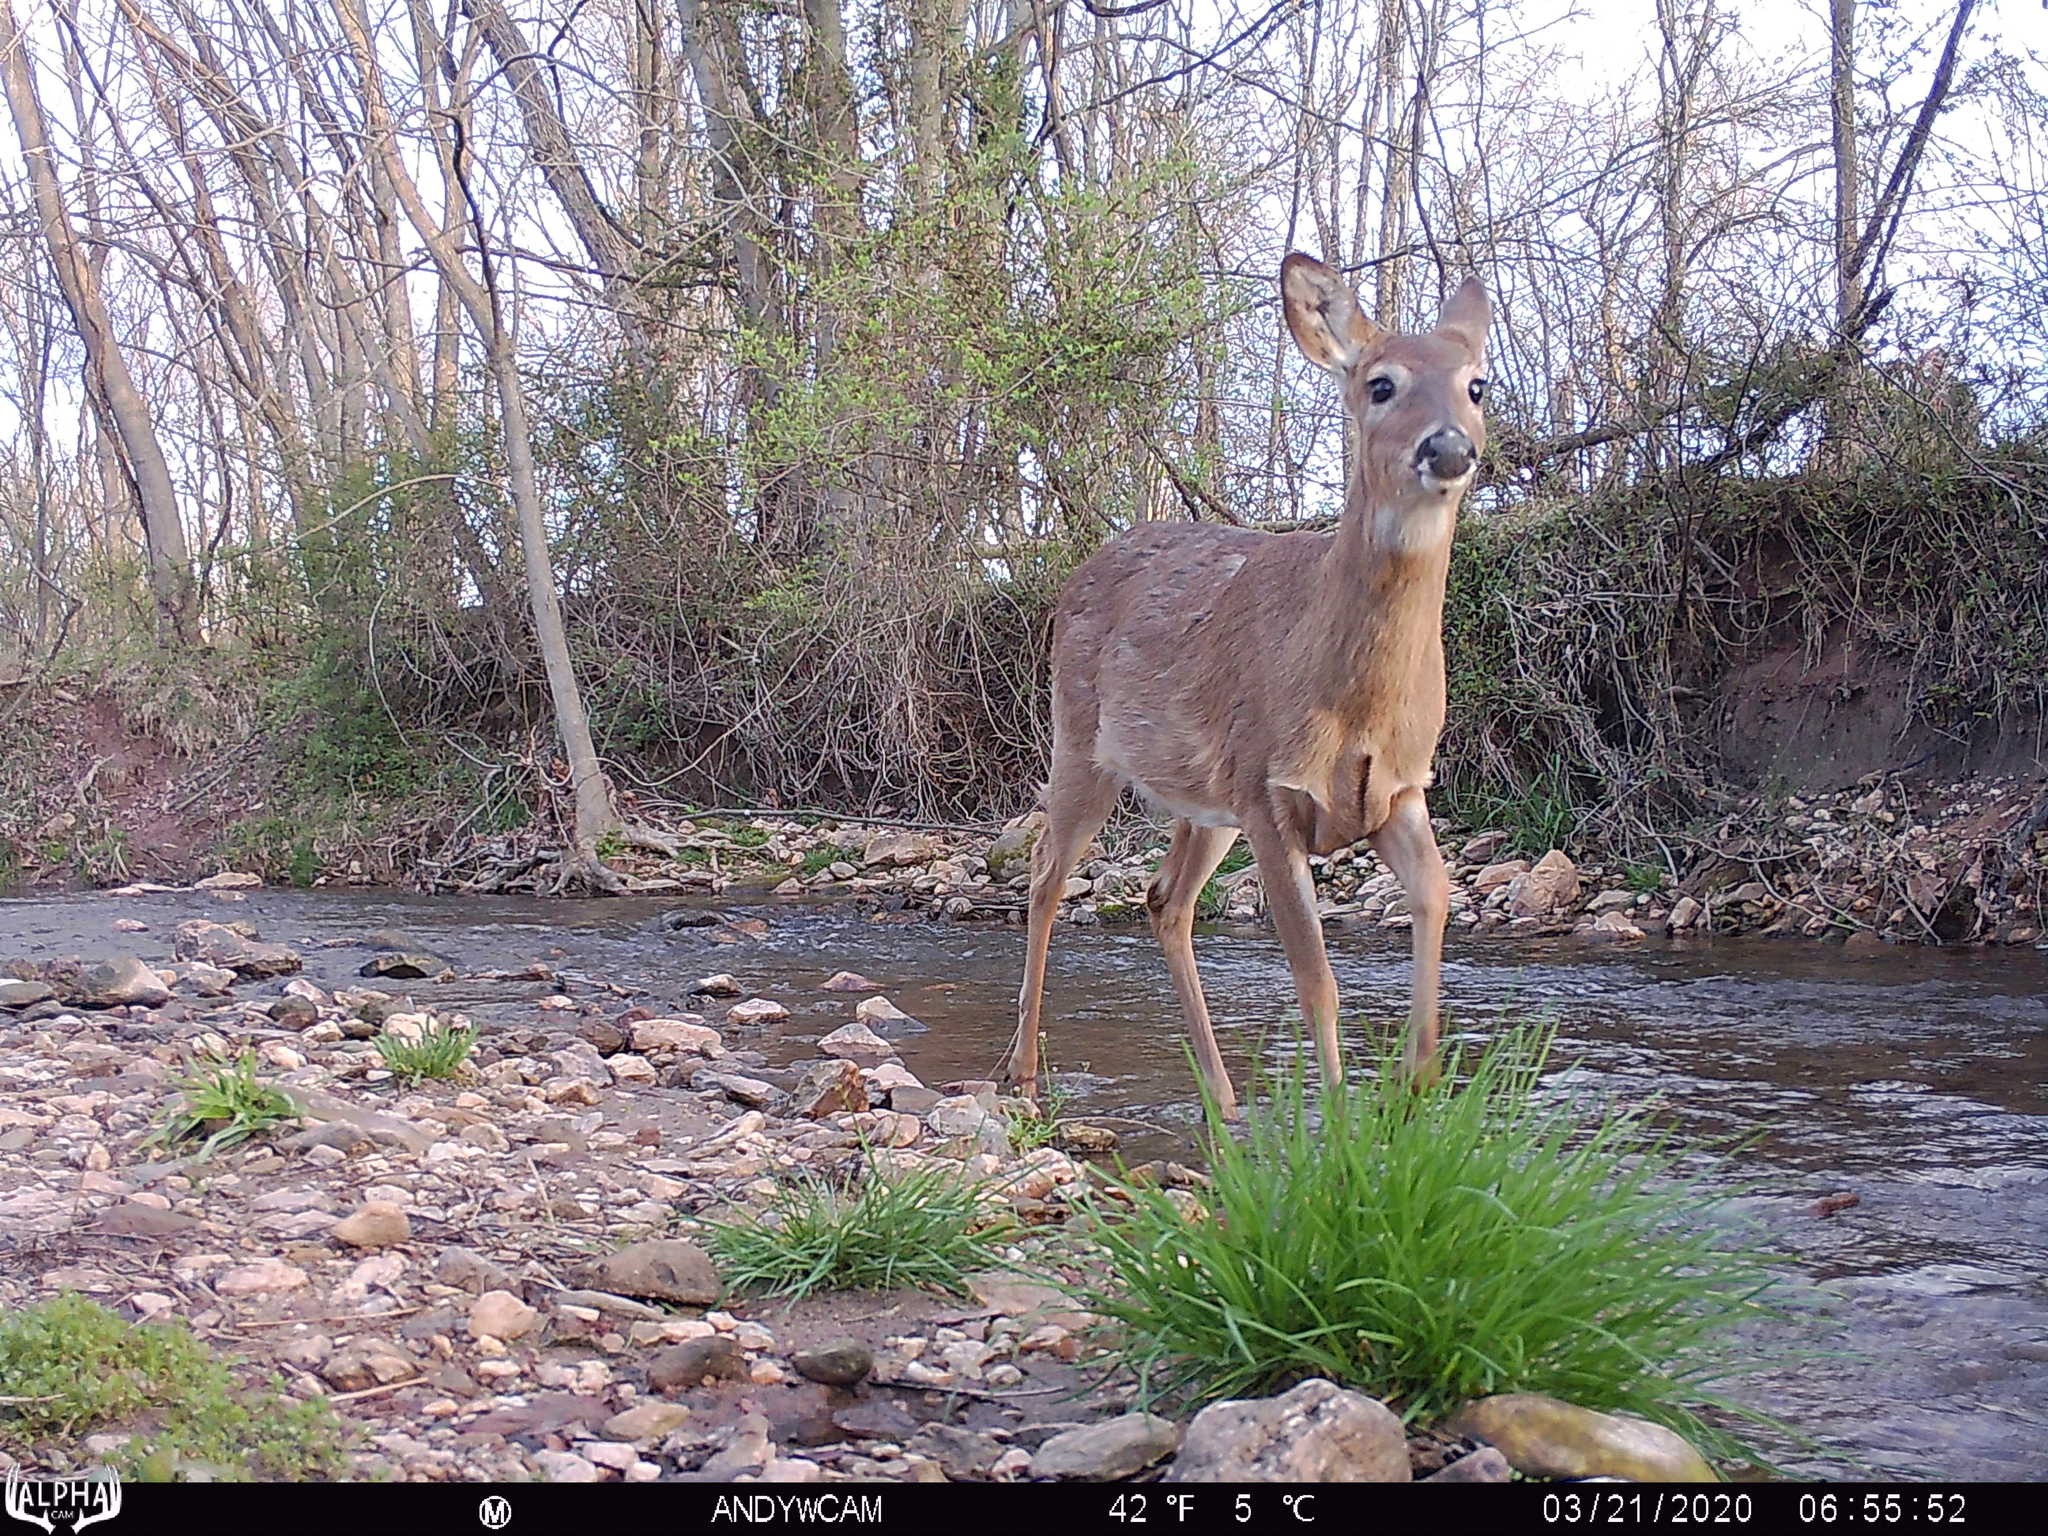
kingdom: Animalia
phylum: Chordata
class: Mammalia
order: Artiodactyla
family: Cervidae
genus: Odocoileus
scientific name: Odocoileus virginianus
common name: White-tailed deer
